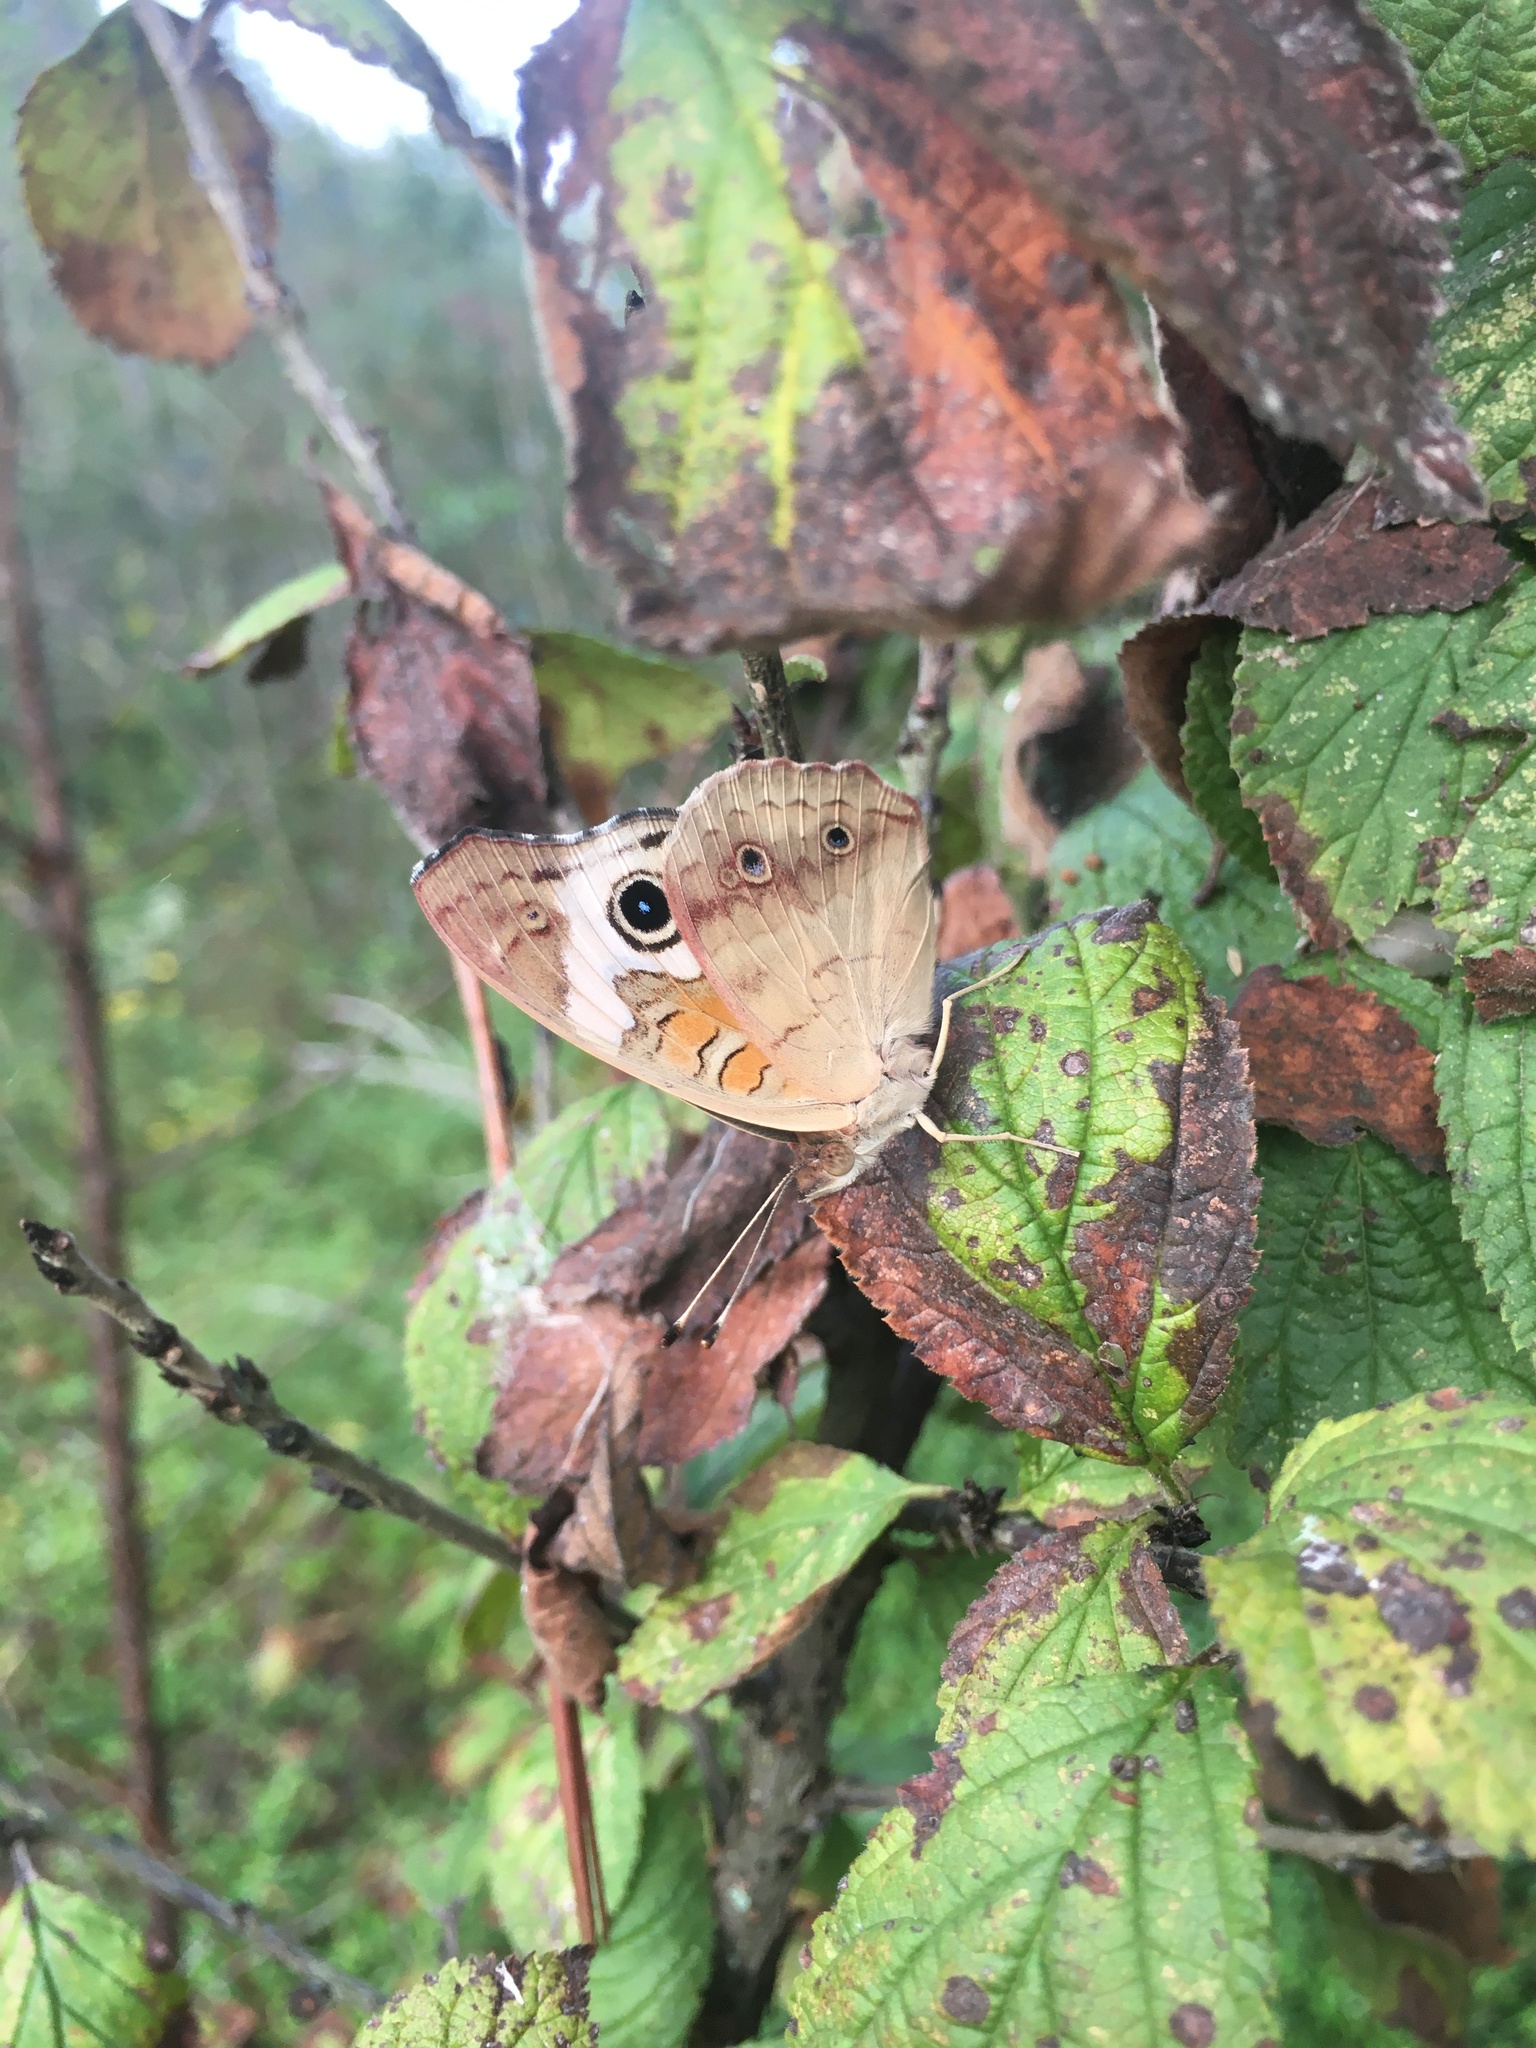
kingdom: Animalia
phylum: Arthropoda
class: Insecta
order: Lepidoptera
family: Nymphalidae
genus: Junonia
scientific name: Junonia coenia
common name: Common buckeye
